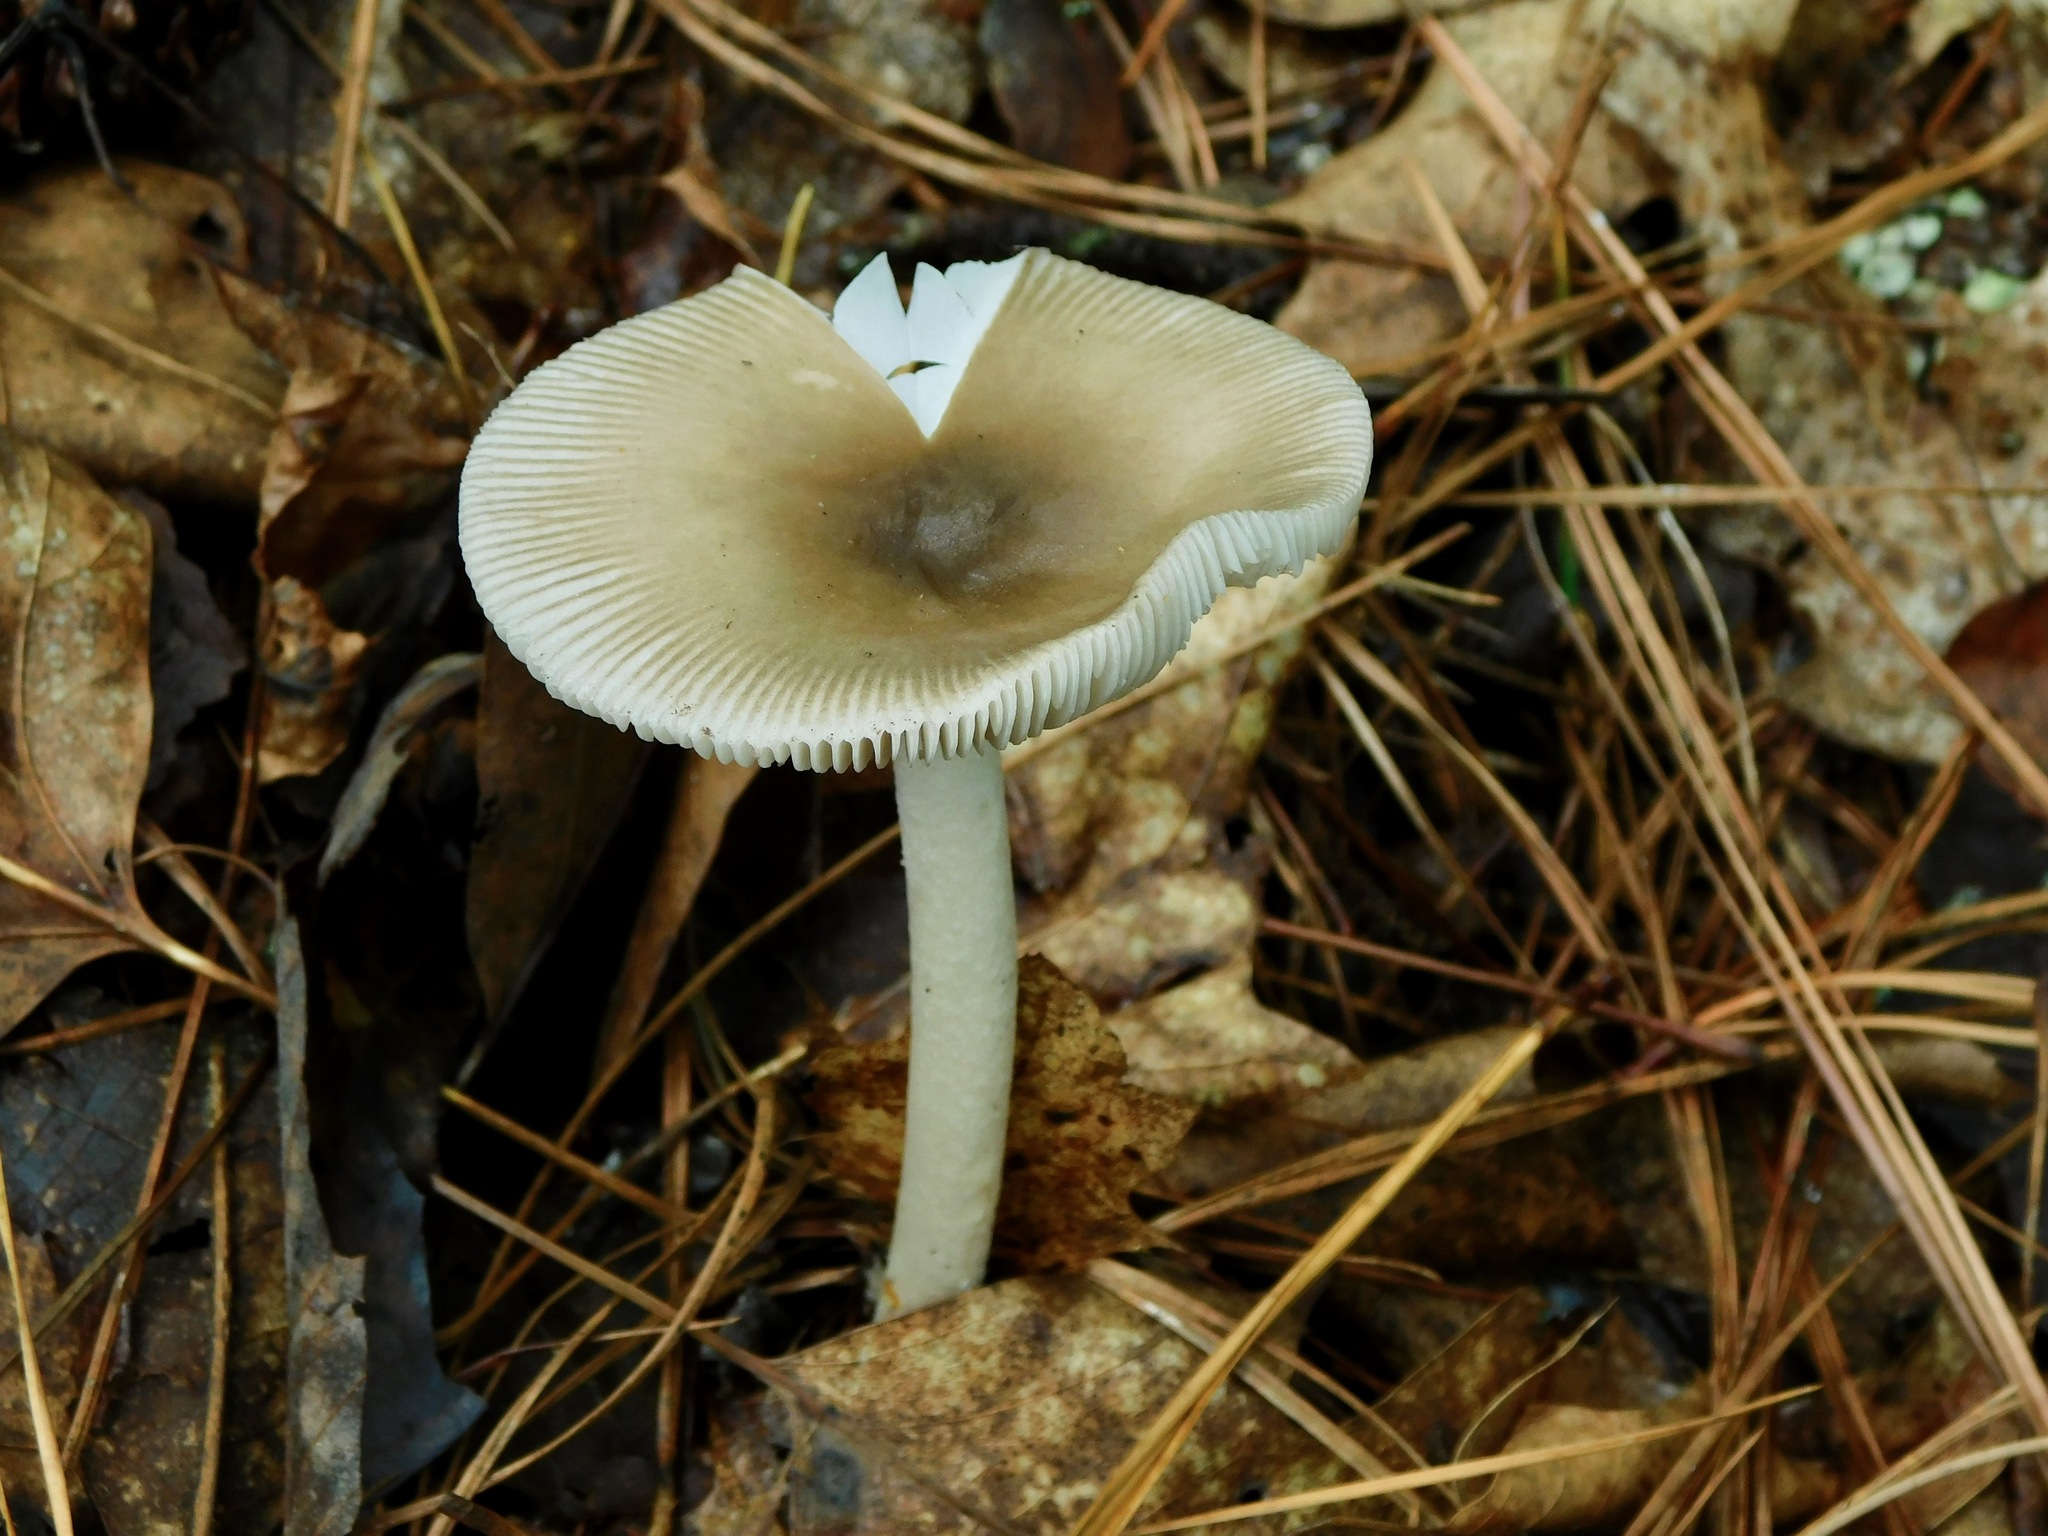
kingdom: Fungi
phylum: Basidiomycota
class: Agaricomycetes
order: Agaricales
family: Amanitaceae
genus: Amanita
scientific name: Amanita vaginata
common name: Grisette
